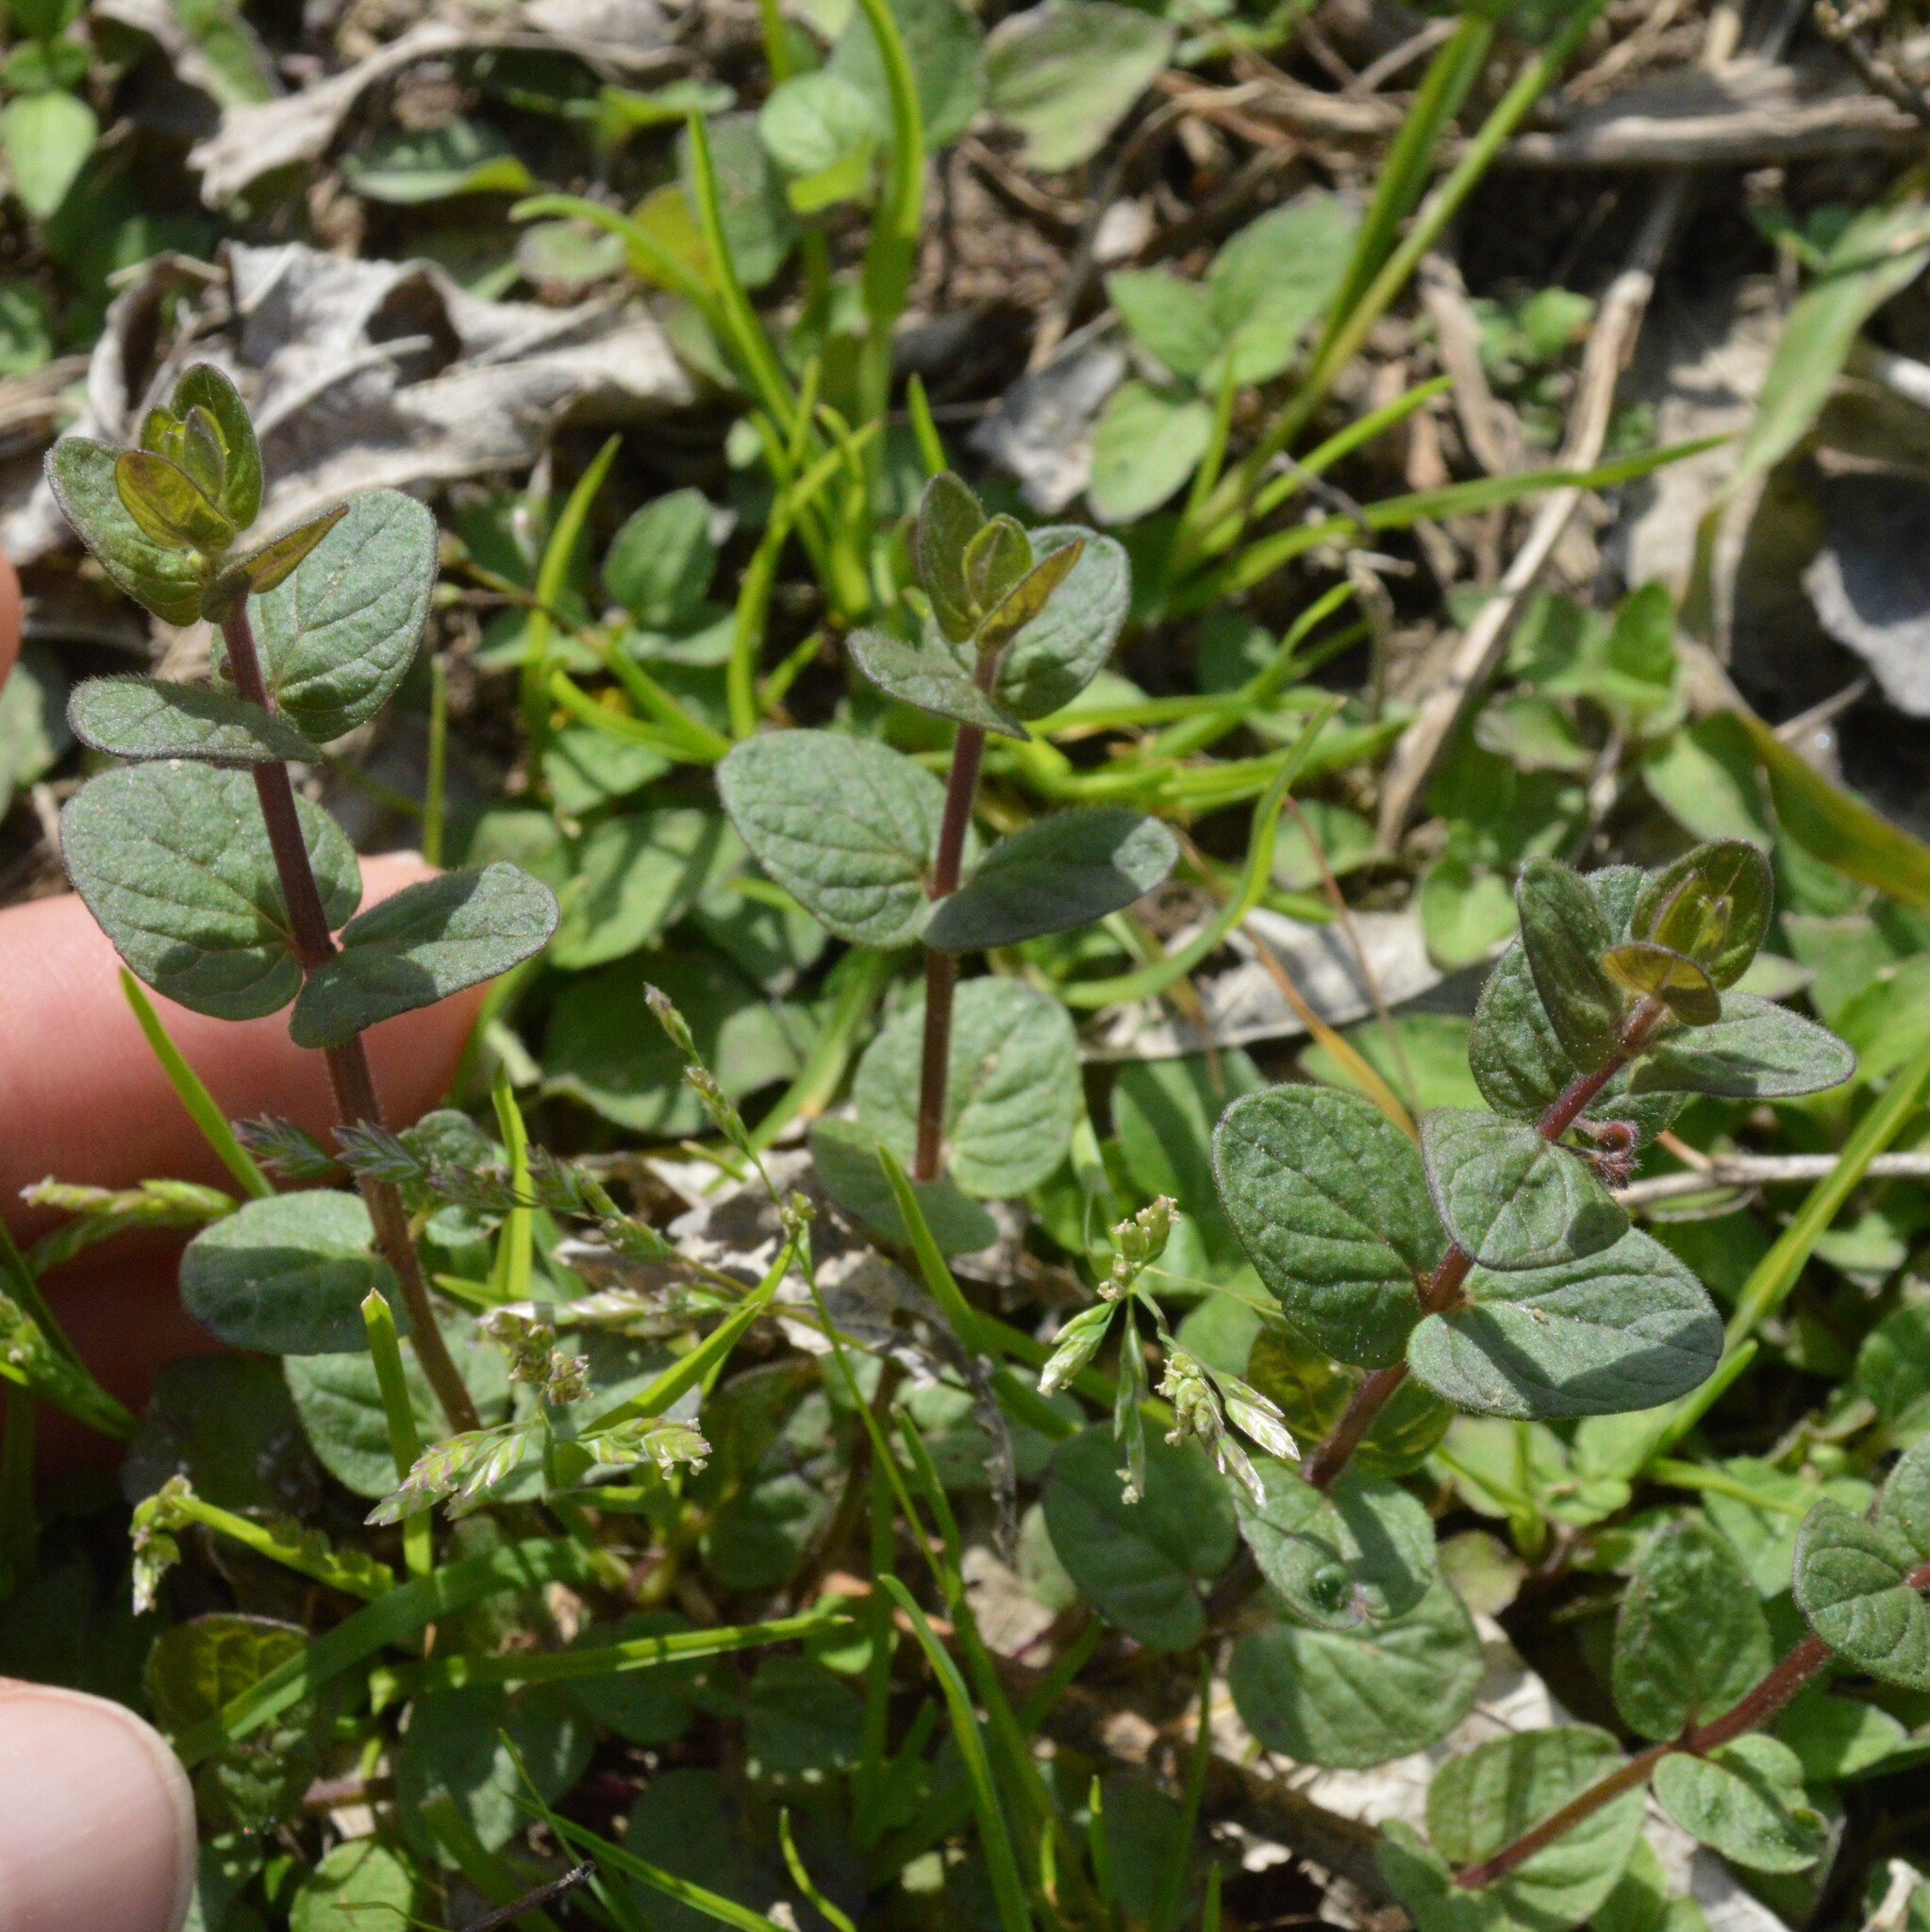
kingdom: Plantae
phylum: Tracheophyta
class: Magnoliopsida
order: Lamiales
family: Lamiaceae
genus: Scutellaria
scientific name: Scutellaria parvula
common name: Little scullcap
